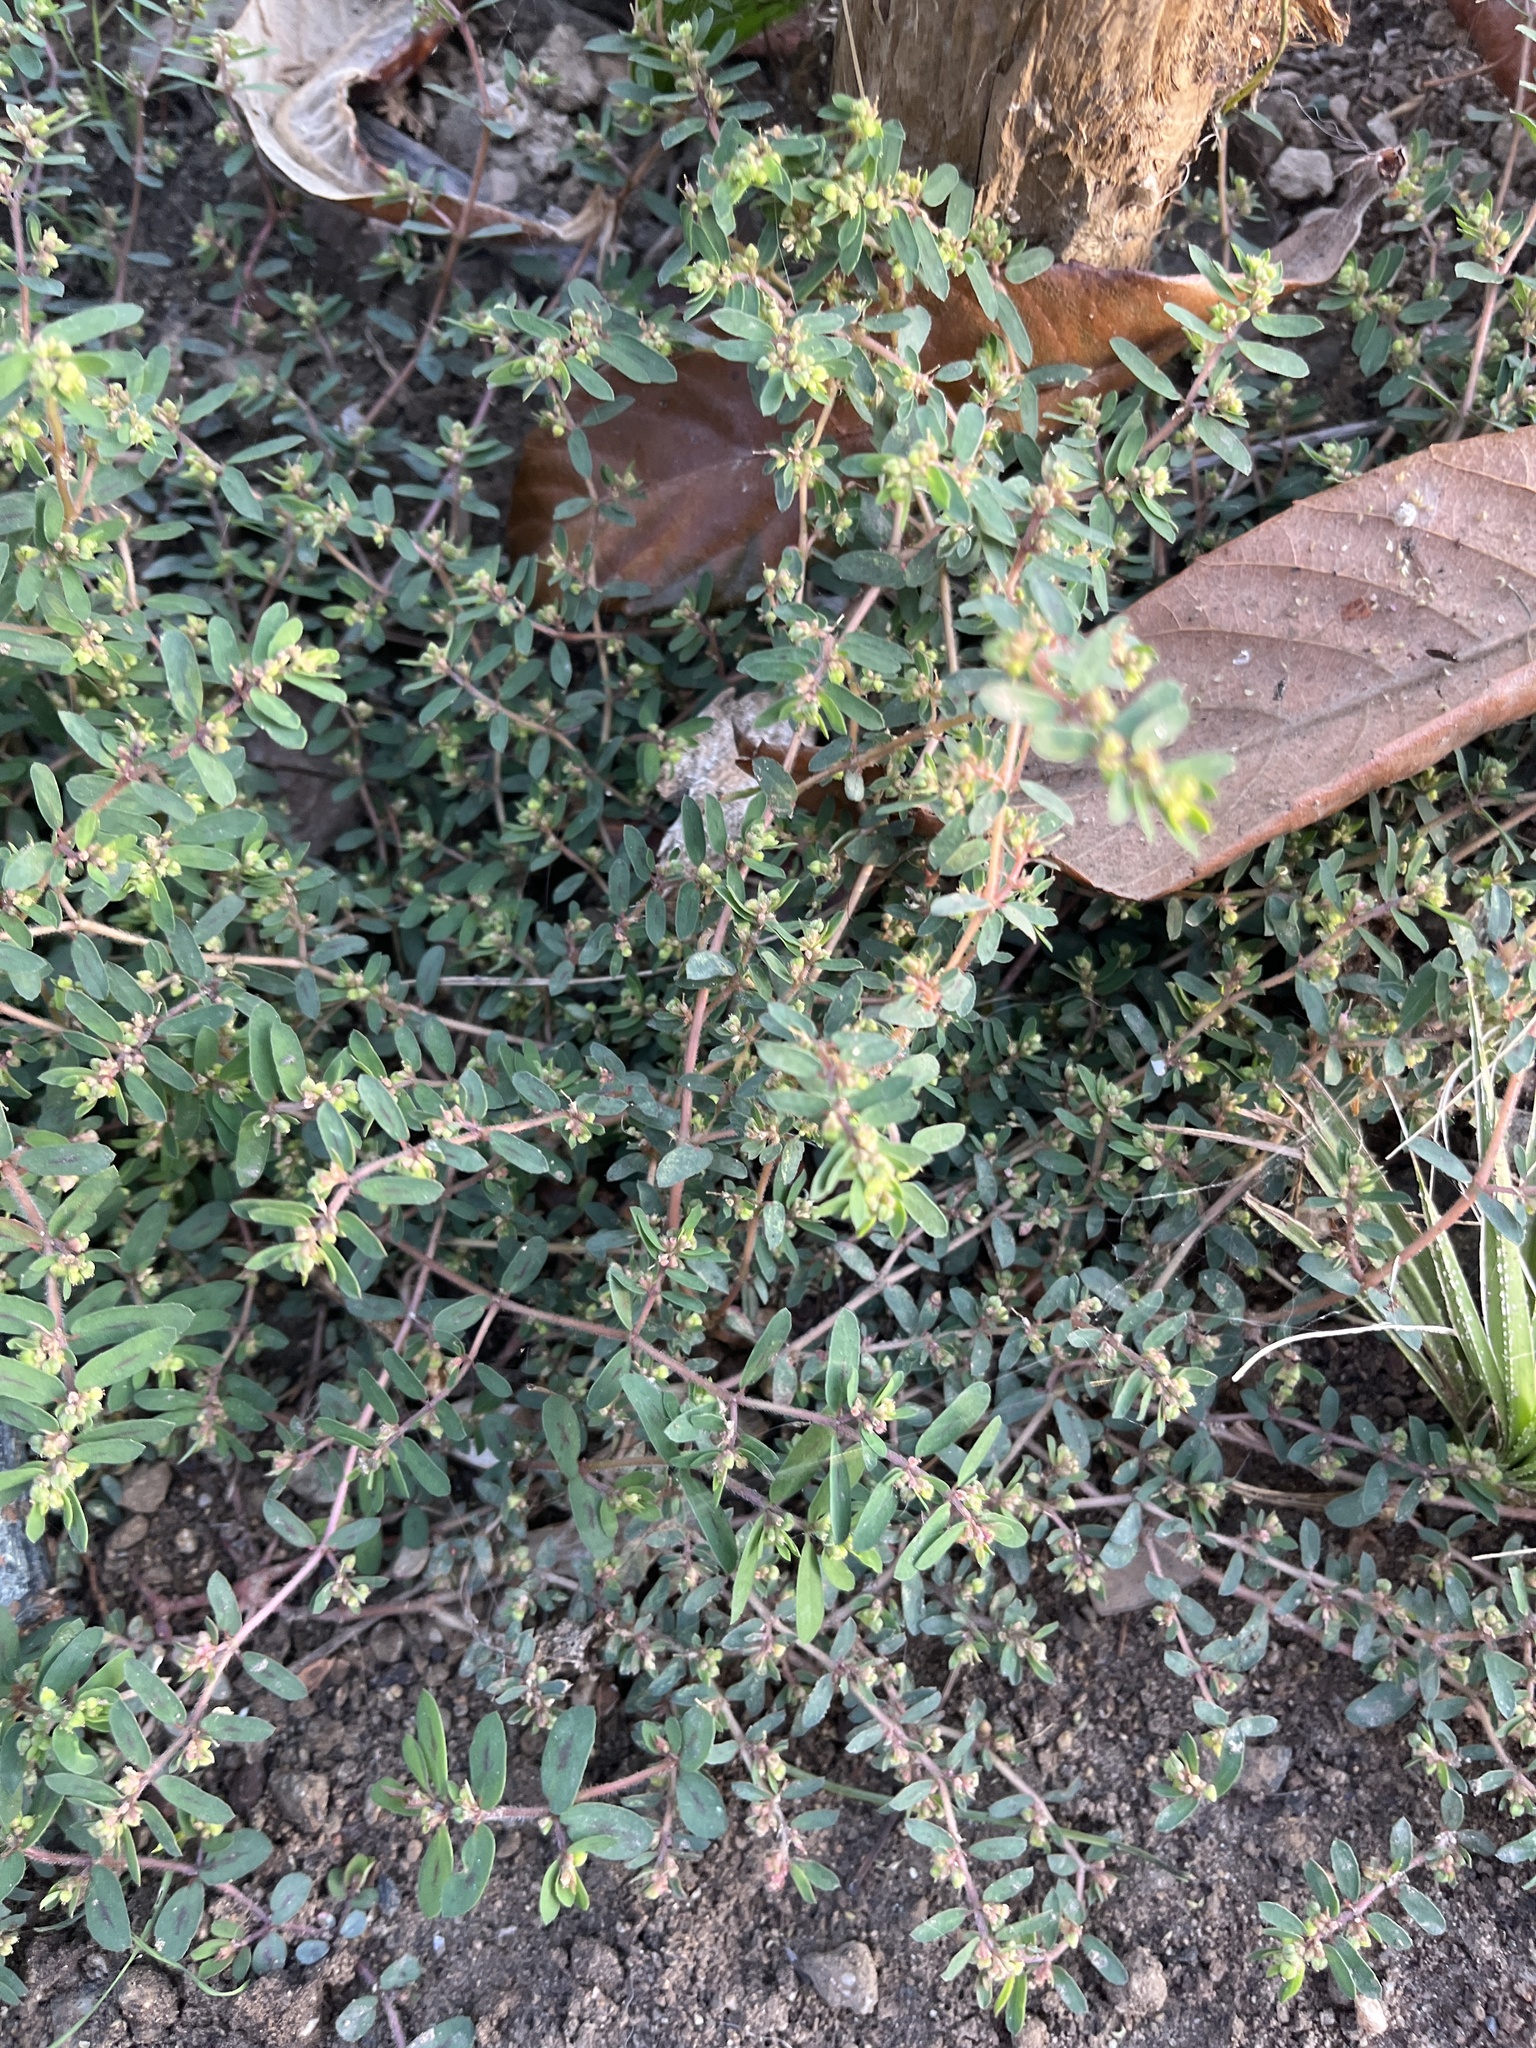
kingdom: Plantae
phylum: Tracheophyta
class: Magnoliopsida
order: Malpighiales
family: Euphorbiaceae
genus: Euphorbia
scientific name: Euphorbia maculata
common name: Spotted spurge
